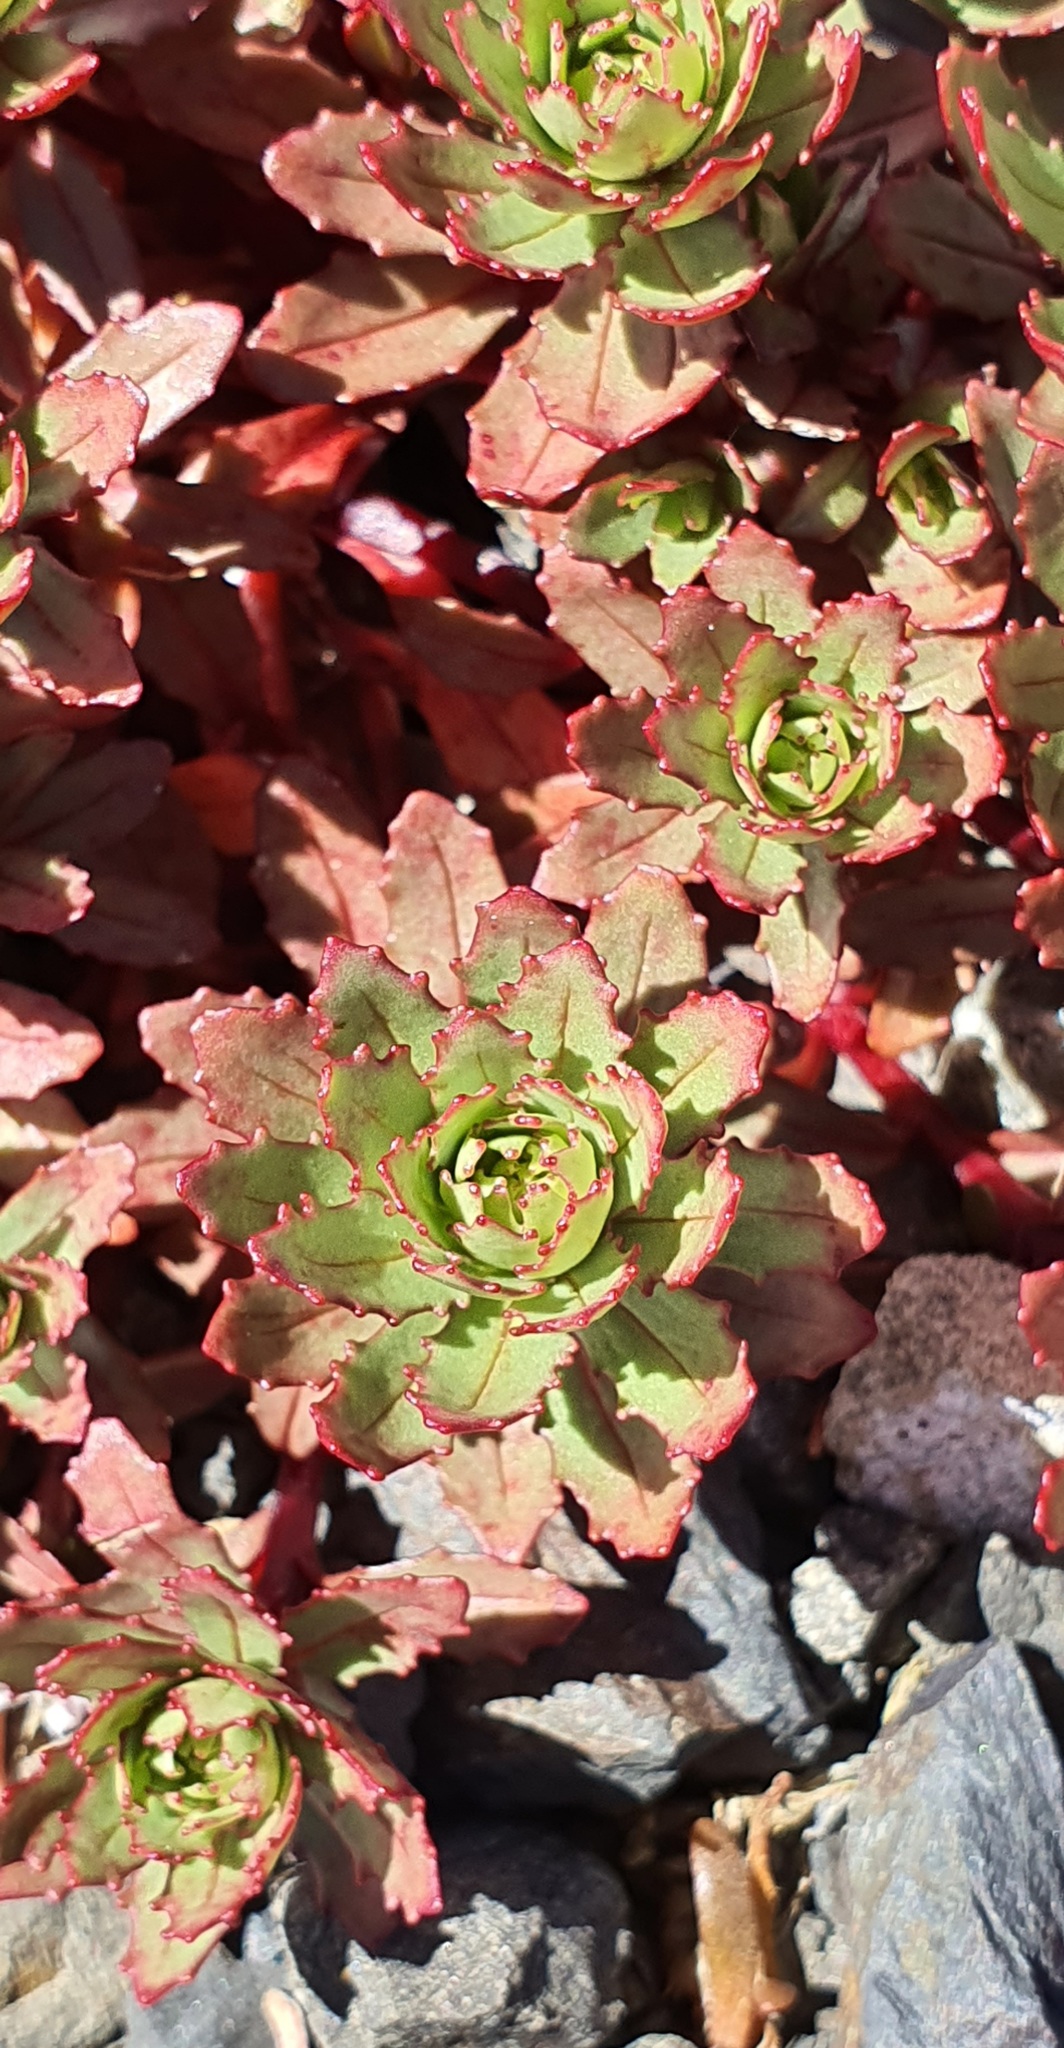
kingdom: Plantae
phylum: Tracheophyta
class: Magnoliopsida
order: Myrtales
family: Onagraceae
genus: Epilobium
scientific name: Epilobium pycnostachyum
